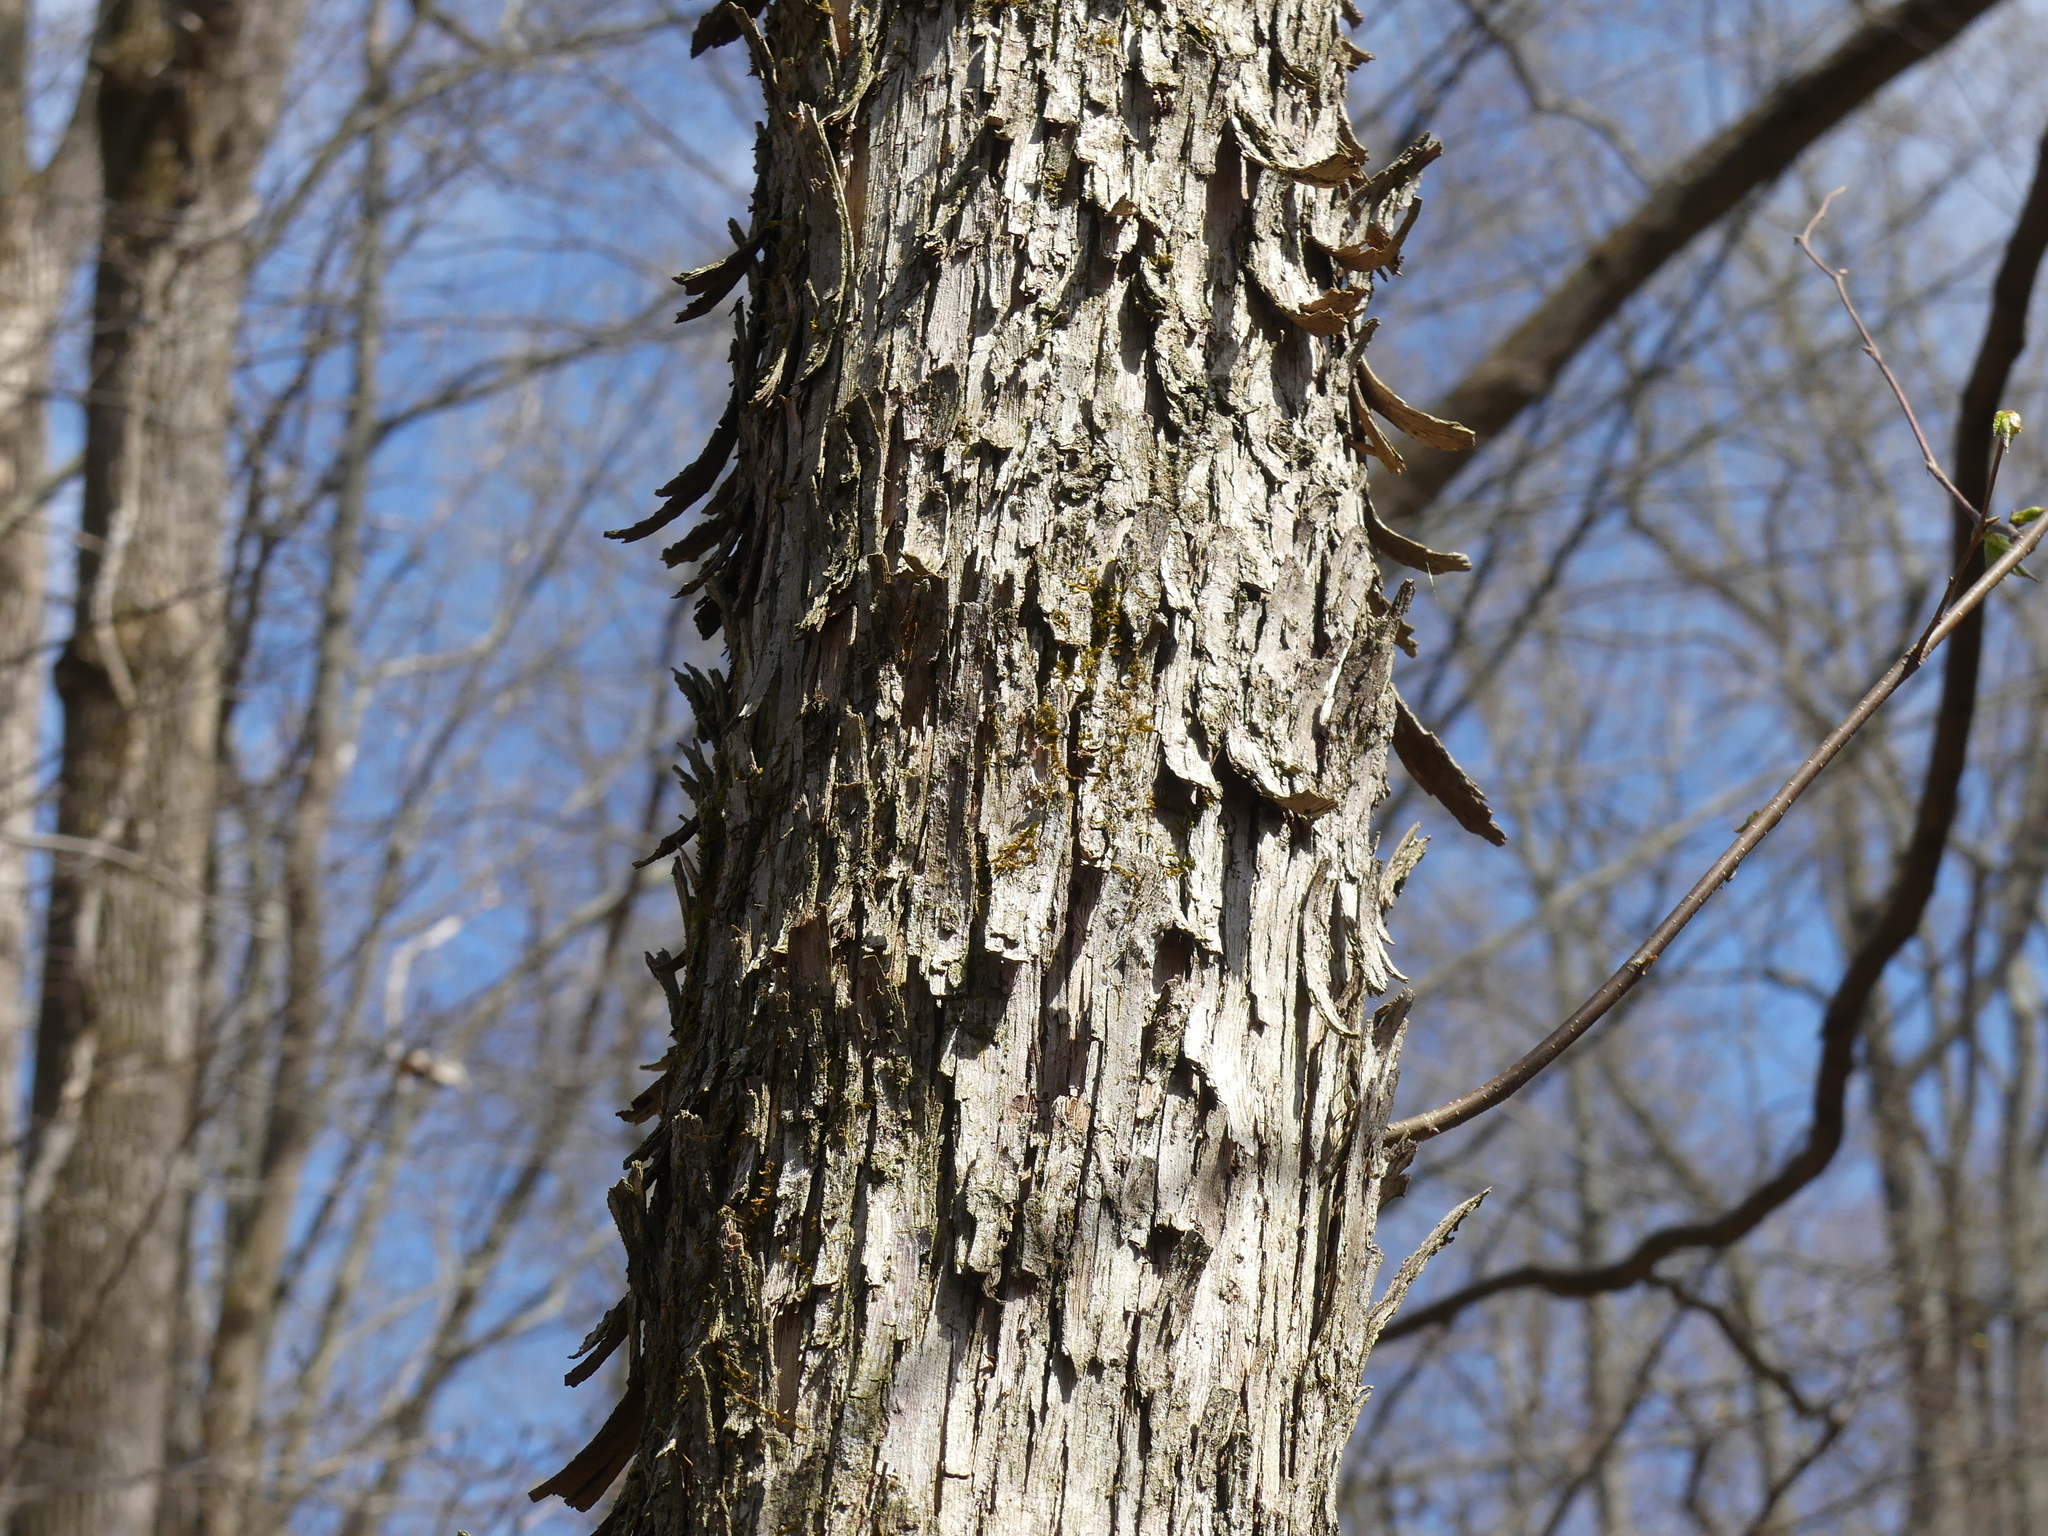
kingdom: Plantae
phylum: Tracheophyta
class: Magnoliopsida
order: Fagales
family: Betulaceae
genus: Ostrya
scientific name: Ostrya virginiana
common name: Ironwood
